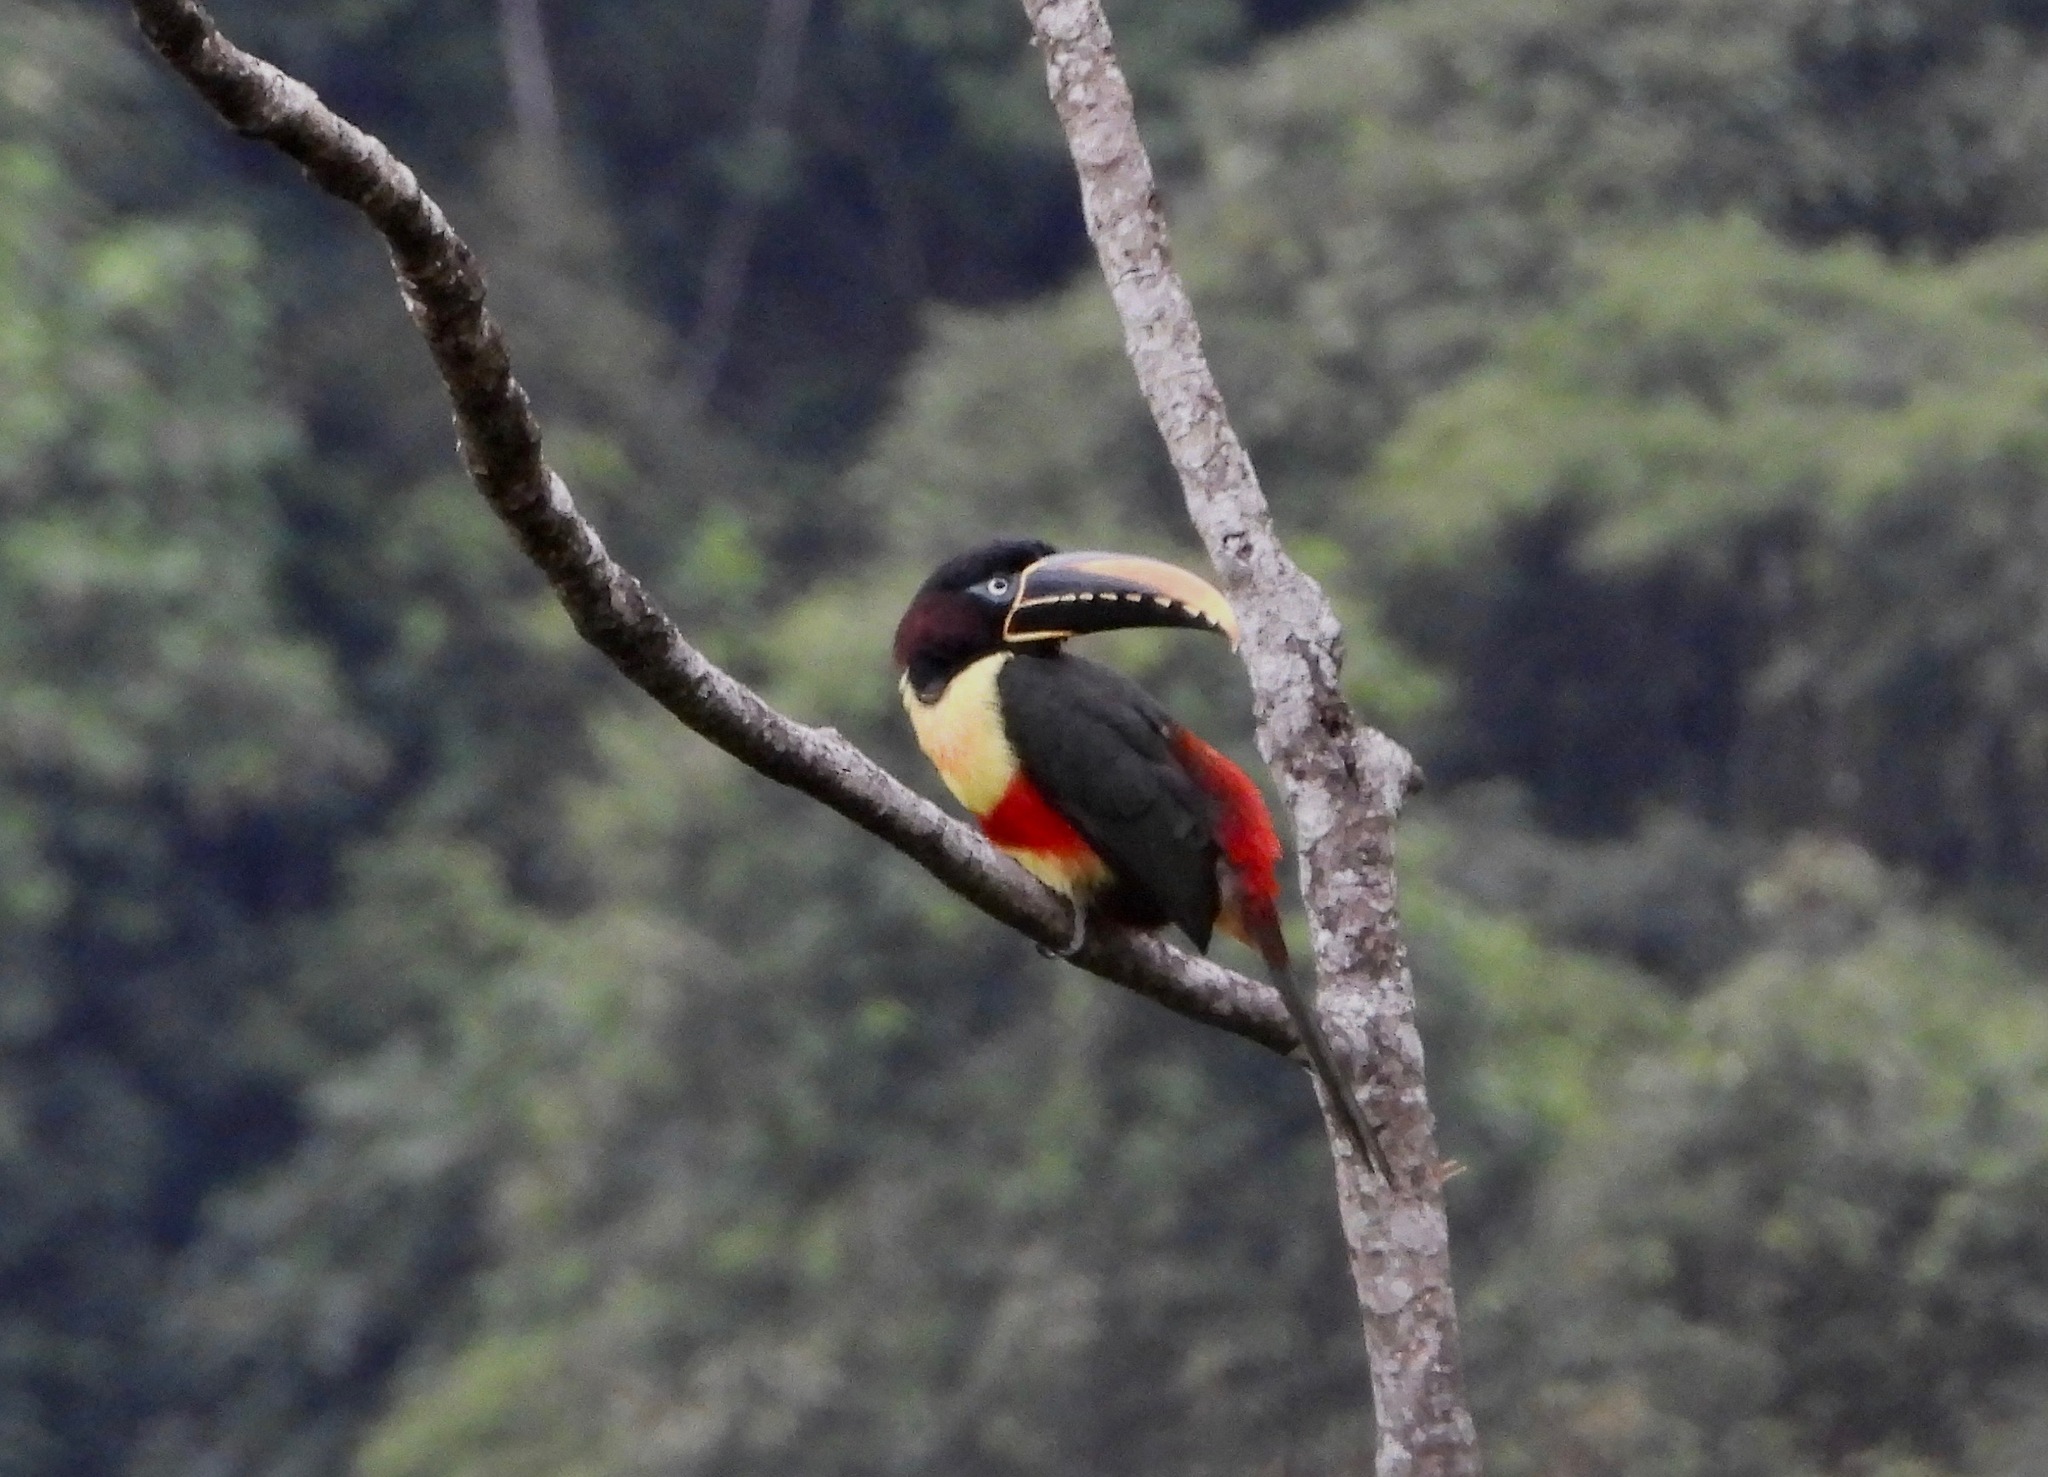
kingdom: Animalia
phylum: Chordata
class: Aves
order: Piciformes
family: Ramphastidae
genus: Pteroglossus
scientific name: Pteroglossus castanotis
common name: Chestnut-eared aracari
